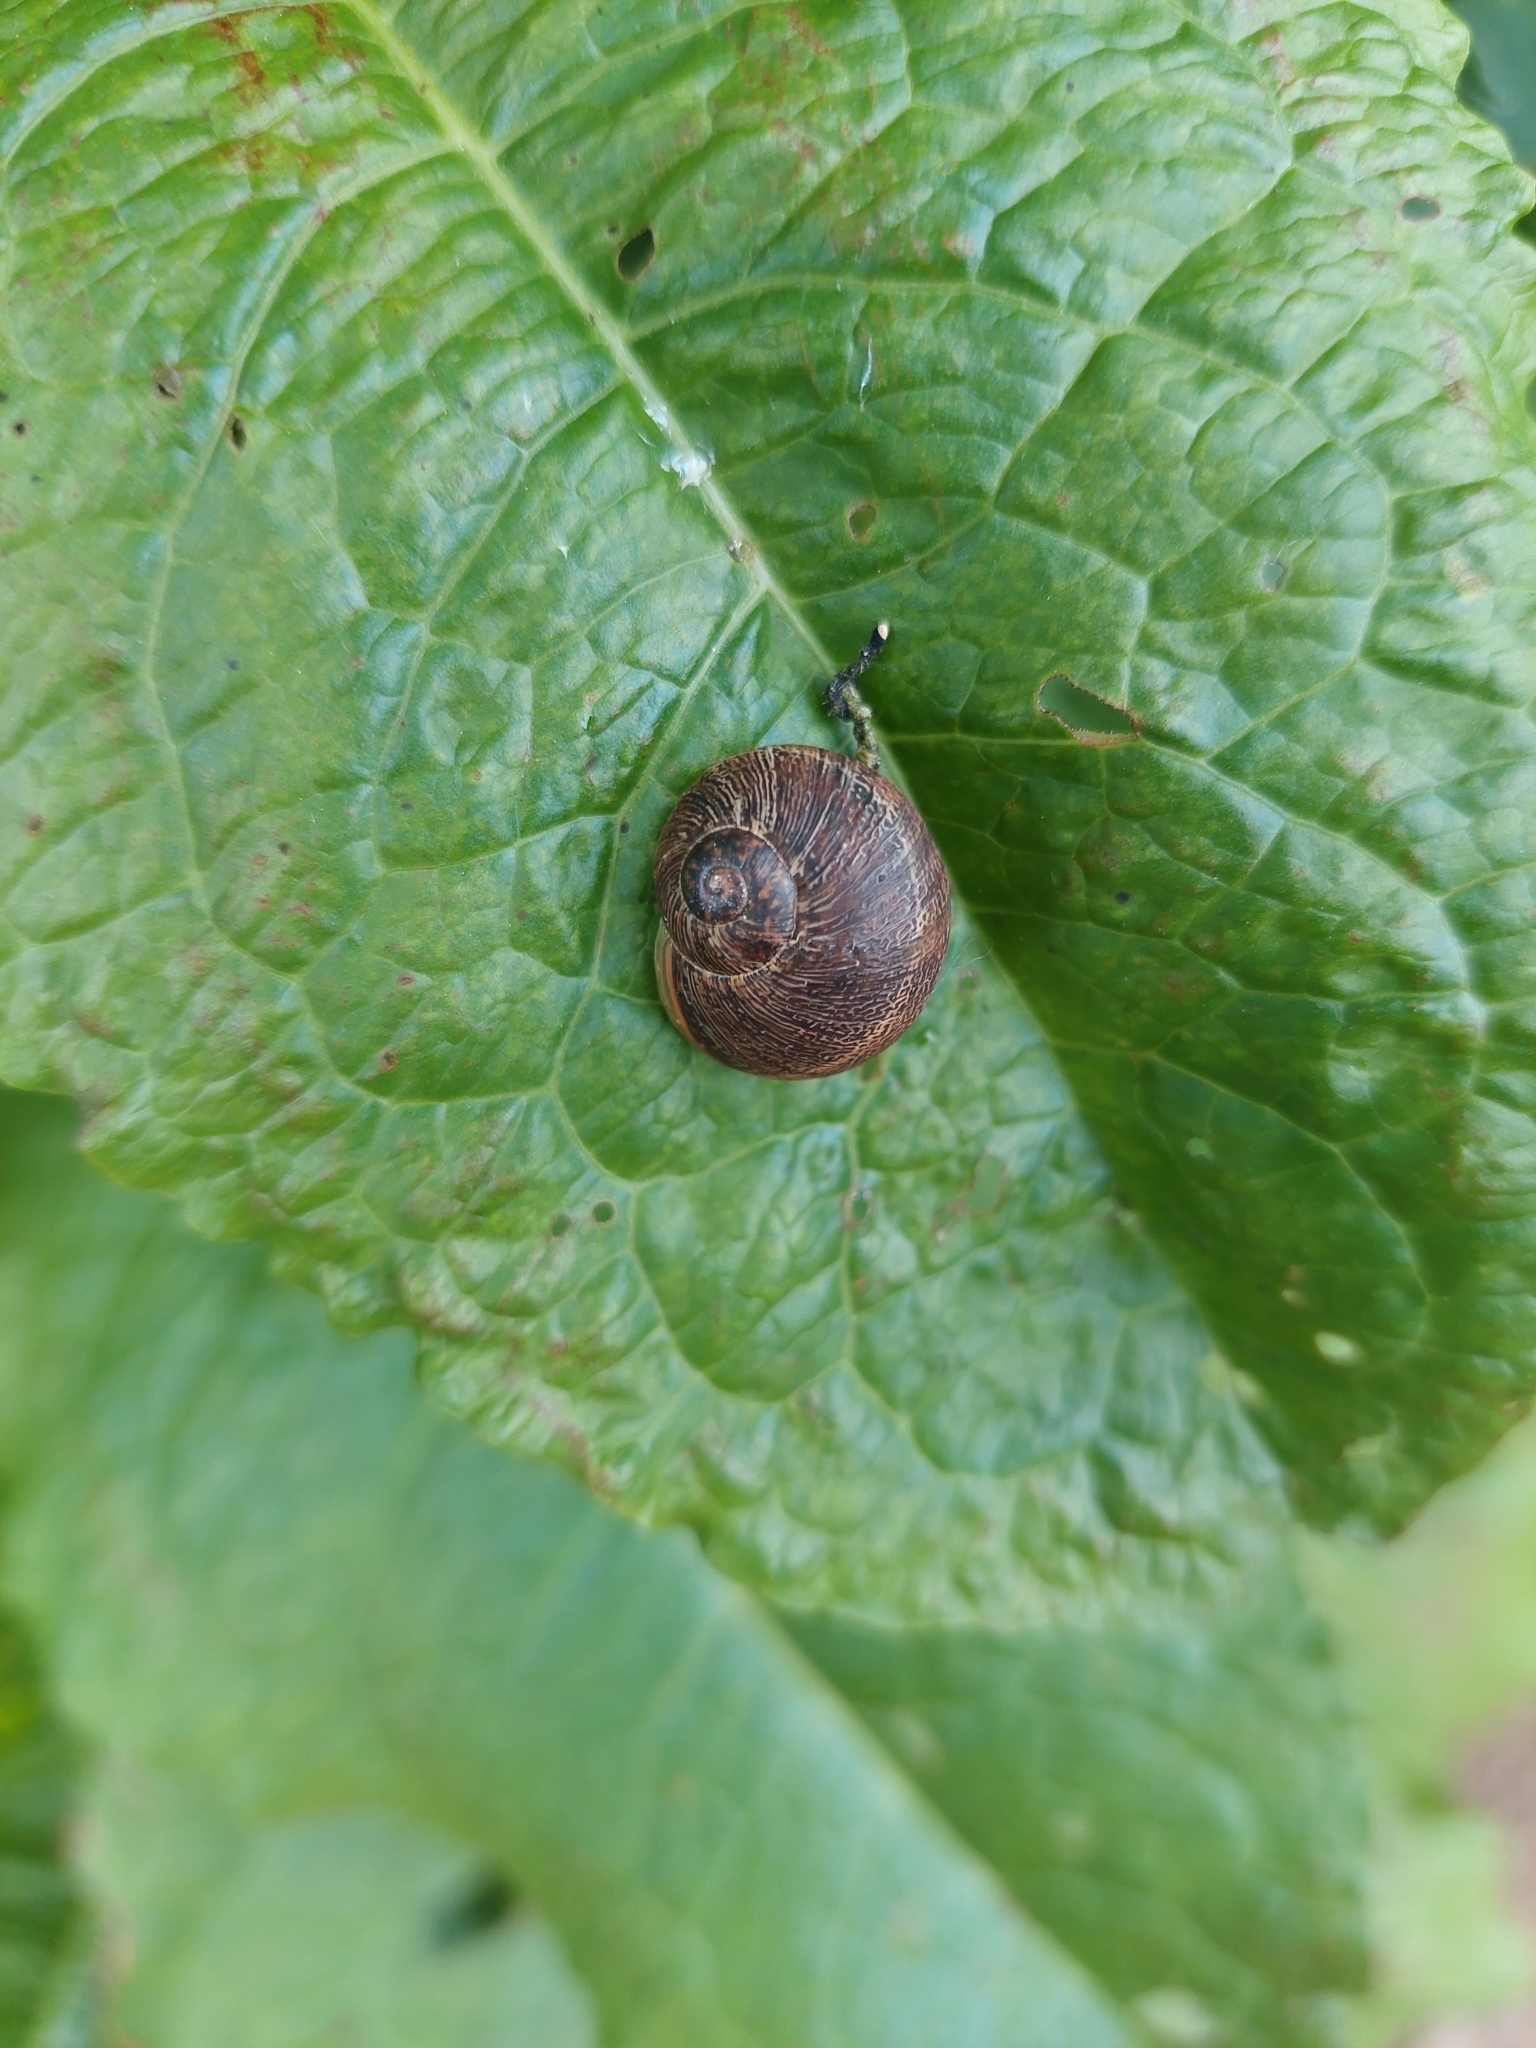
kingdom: Animalia
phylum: Mollusca
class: Gastropoda
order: Stylommatophora
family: Helicidae
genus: Cornu
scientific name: Cornu aspersum
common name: Brown garden snail
